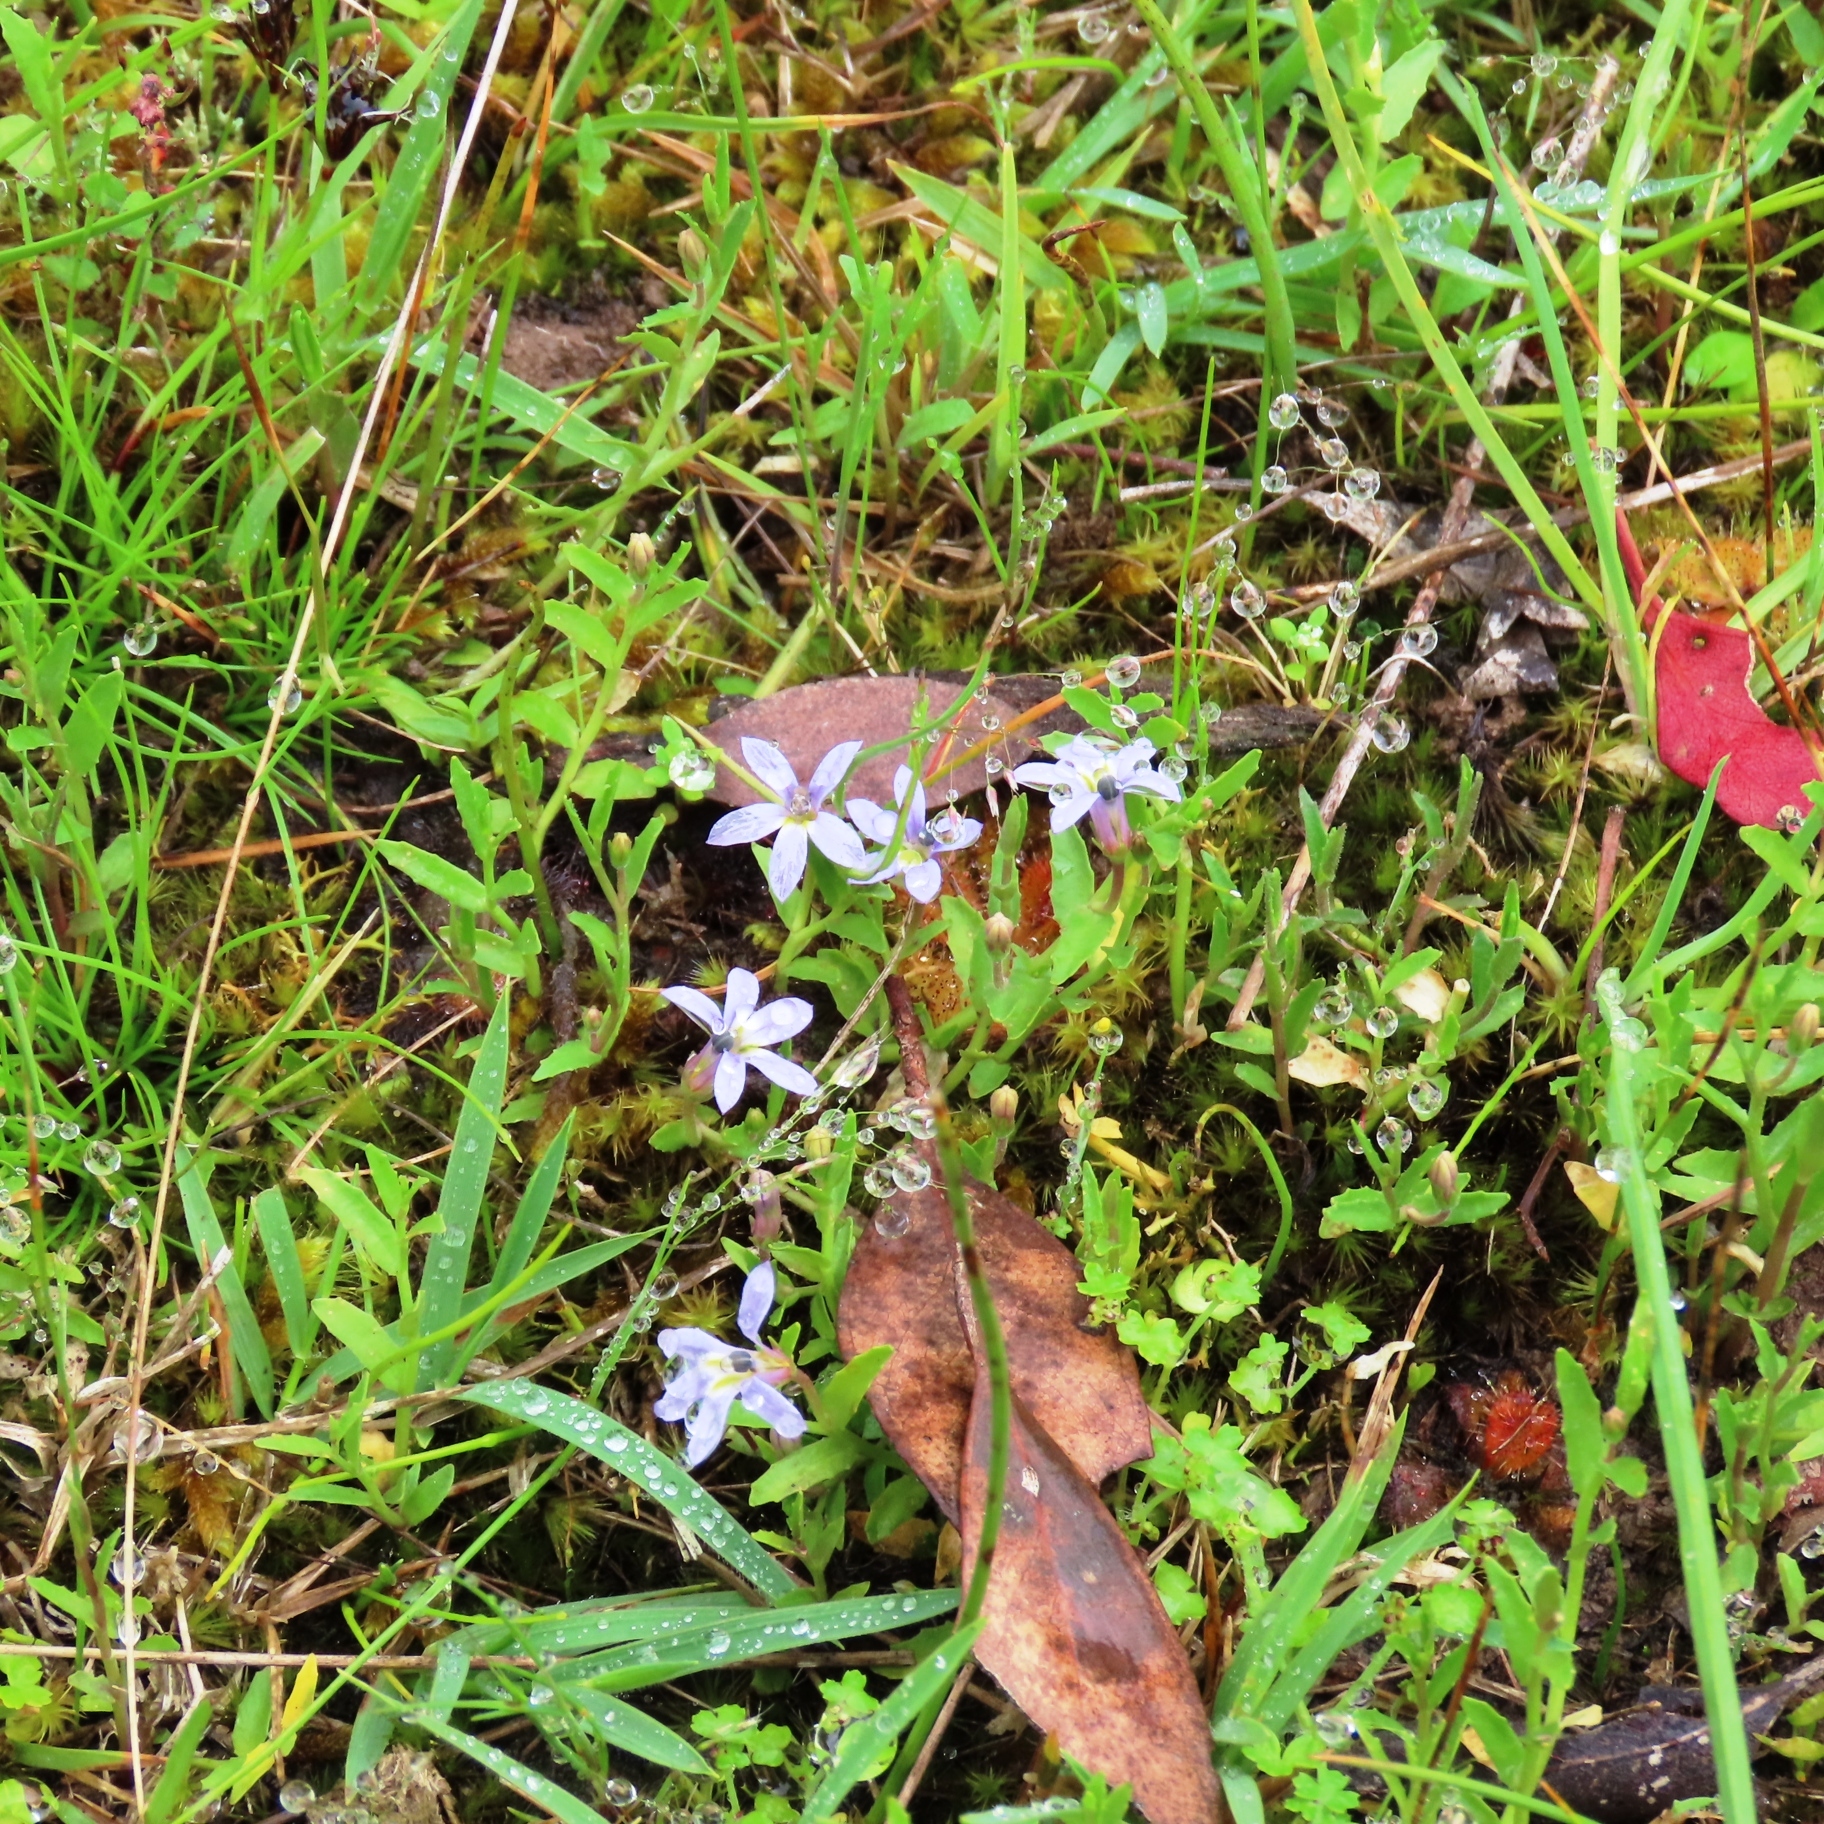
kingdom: Plantae
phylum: Tracheophyta
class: Magnoliopsida
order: Asterales
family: Campanulaceae
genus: Isotoma
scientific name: Isotoma fluviatilis
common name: Isotoma
